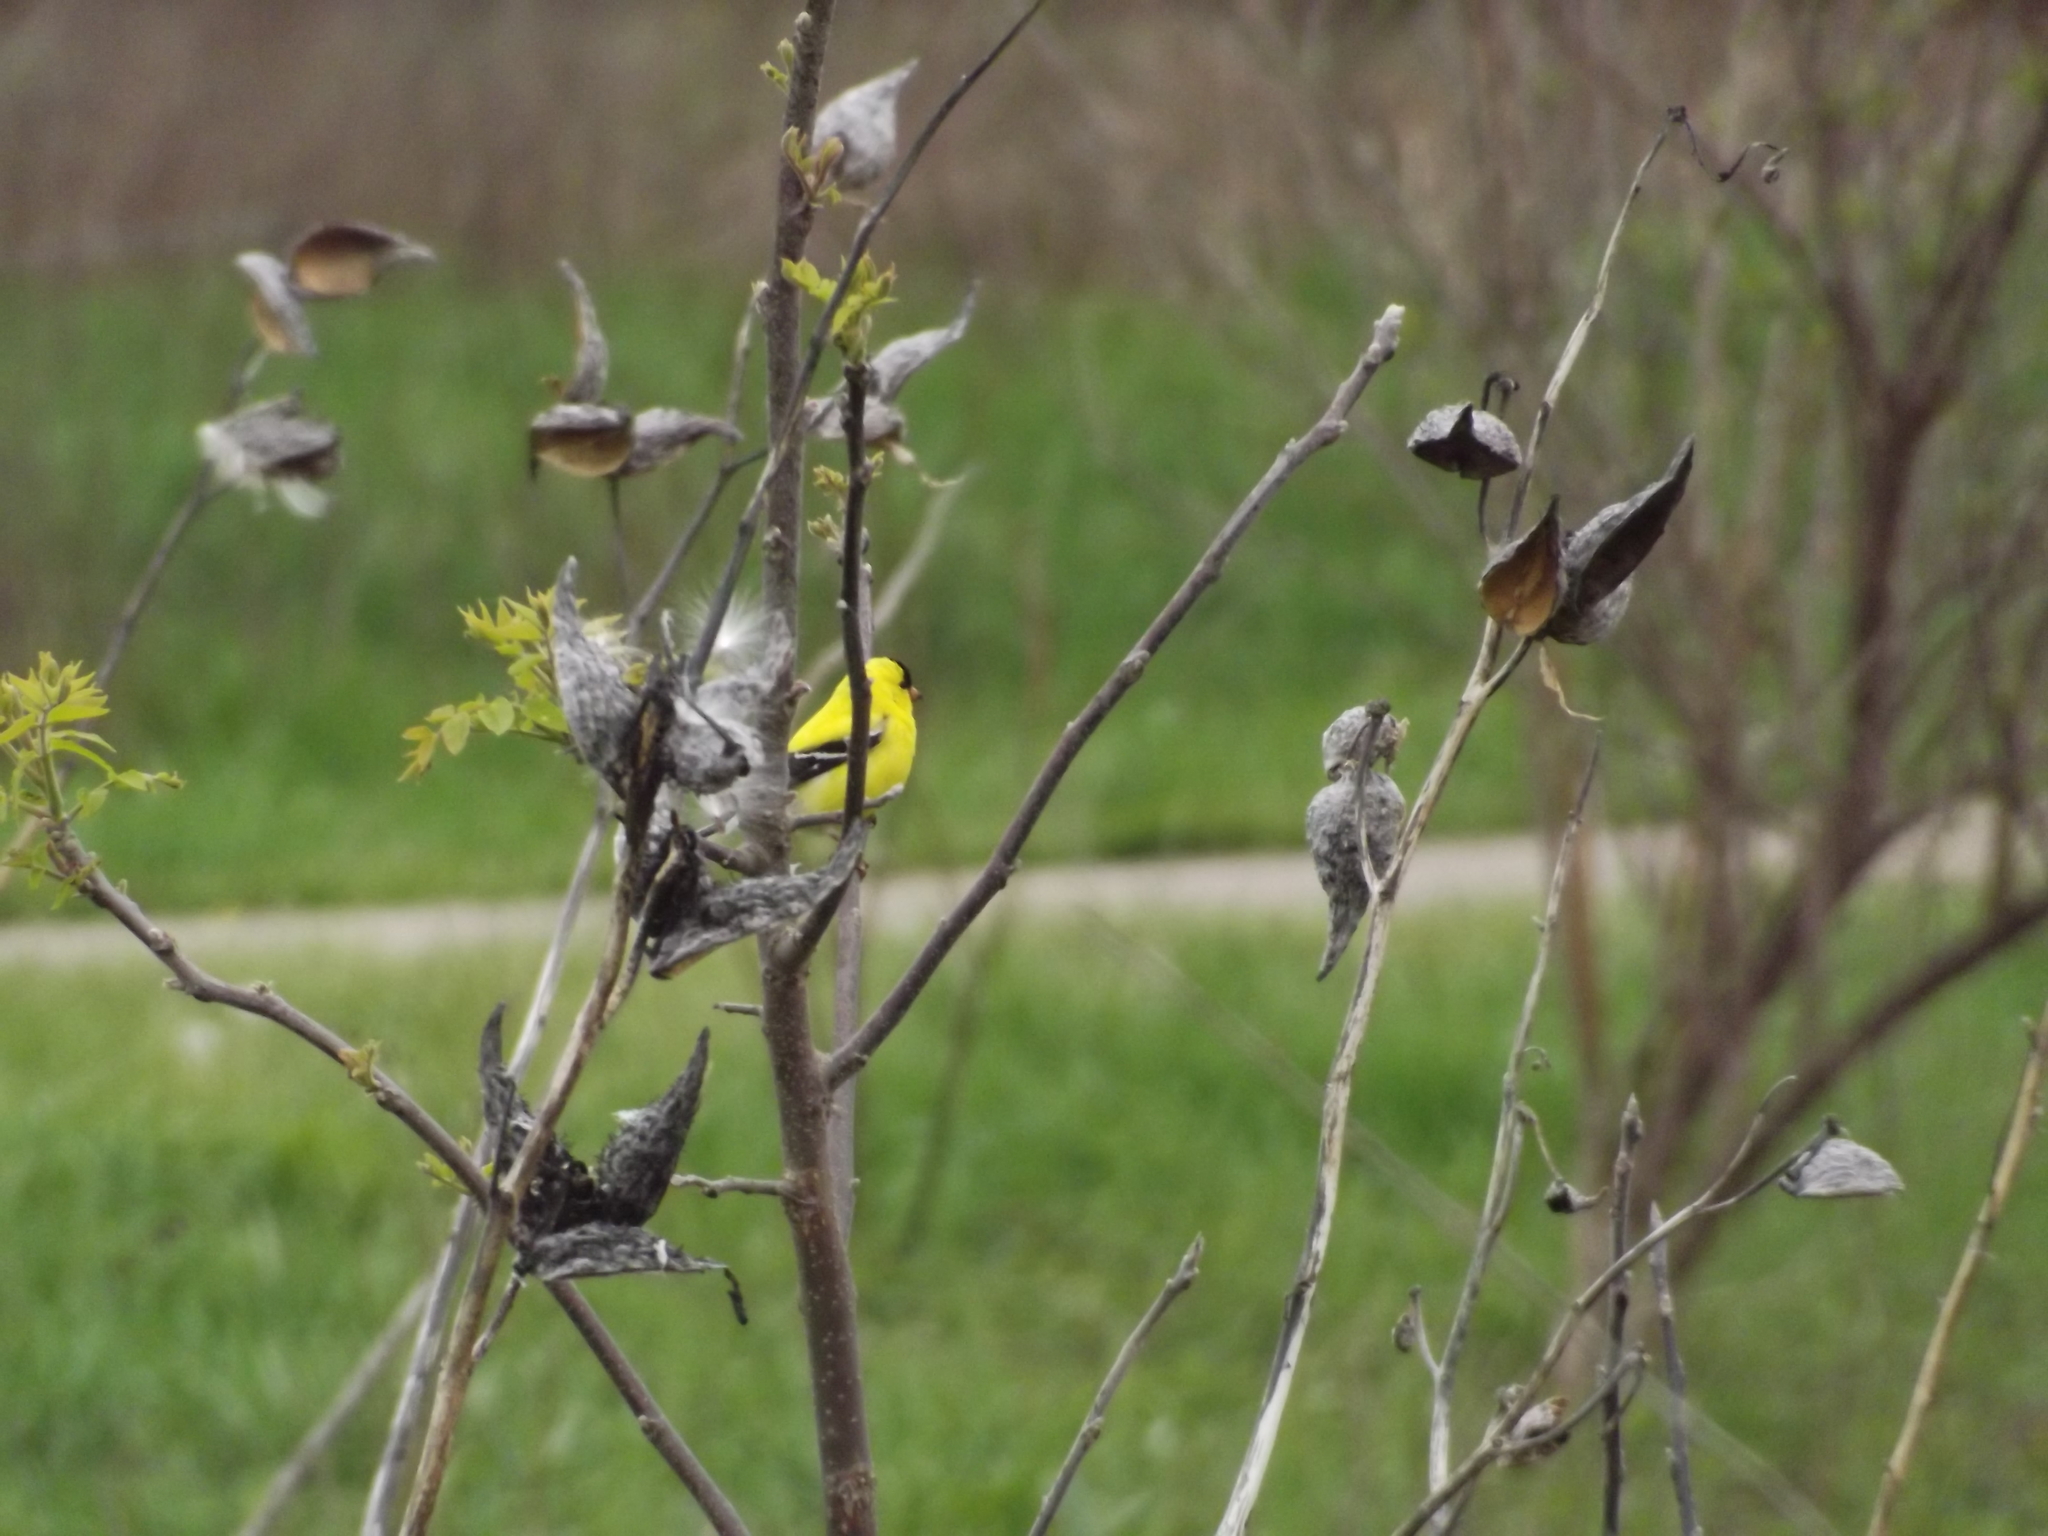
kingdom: Animalia
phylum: Chordata
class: Aves
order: Passeriformes
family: Fringillidae
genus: Spinus
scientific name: Spinus tristis
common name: American goldfinch
